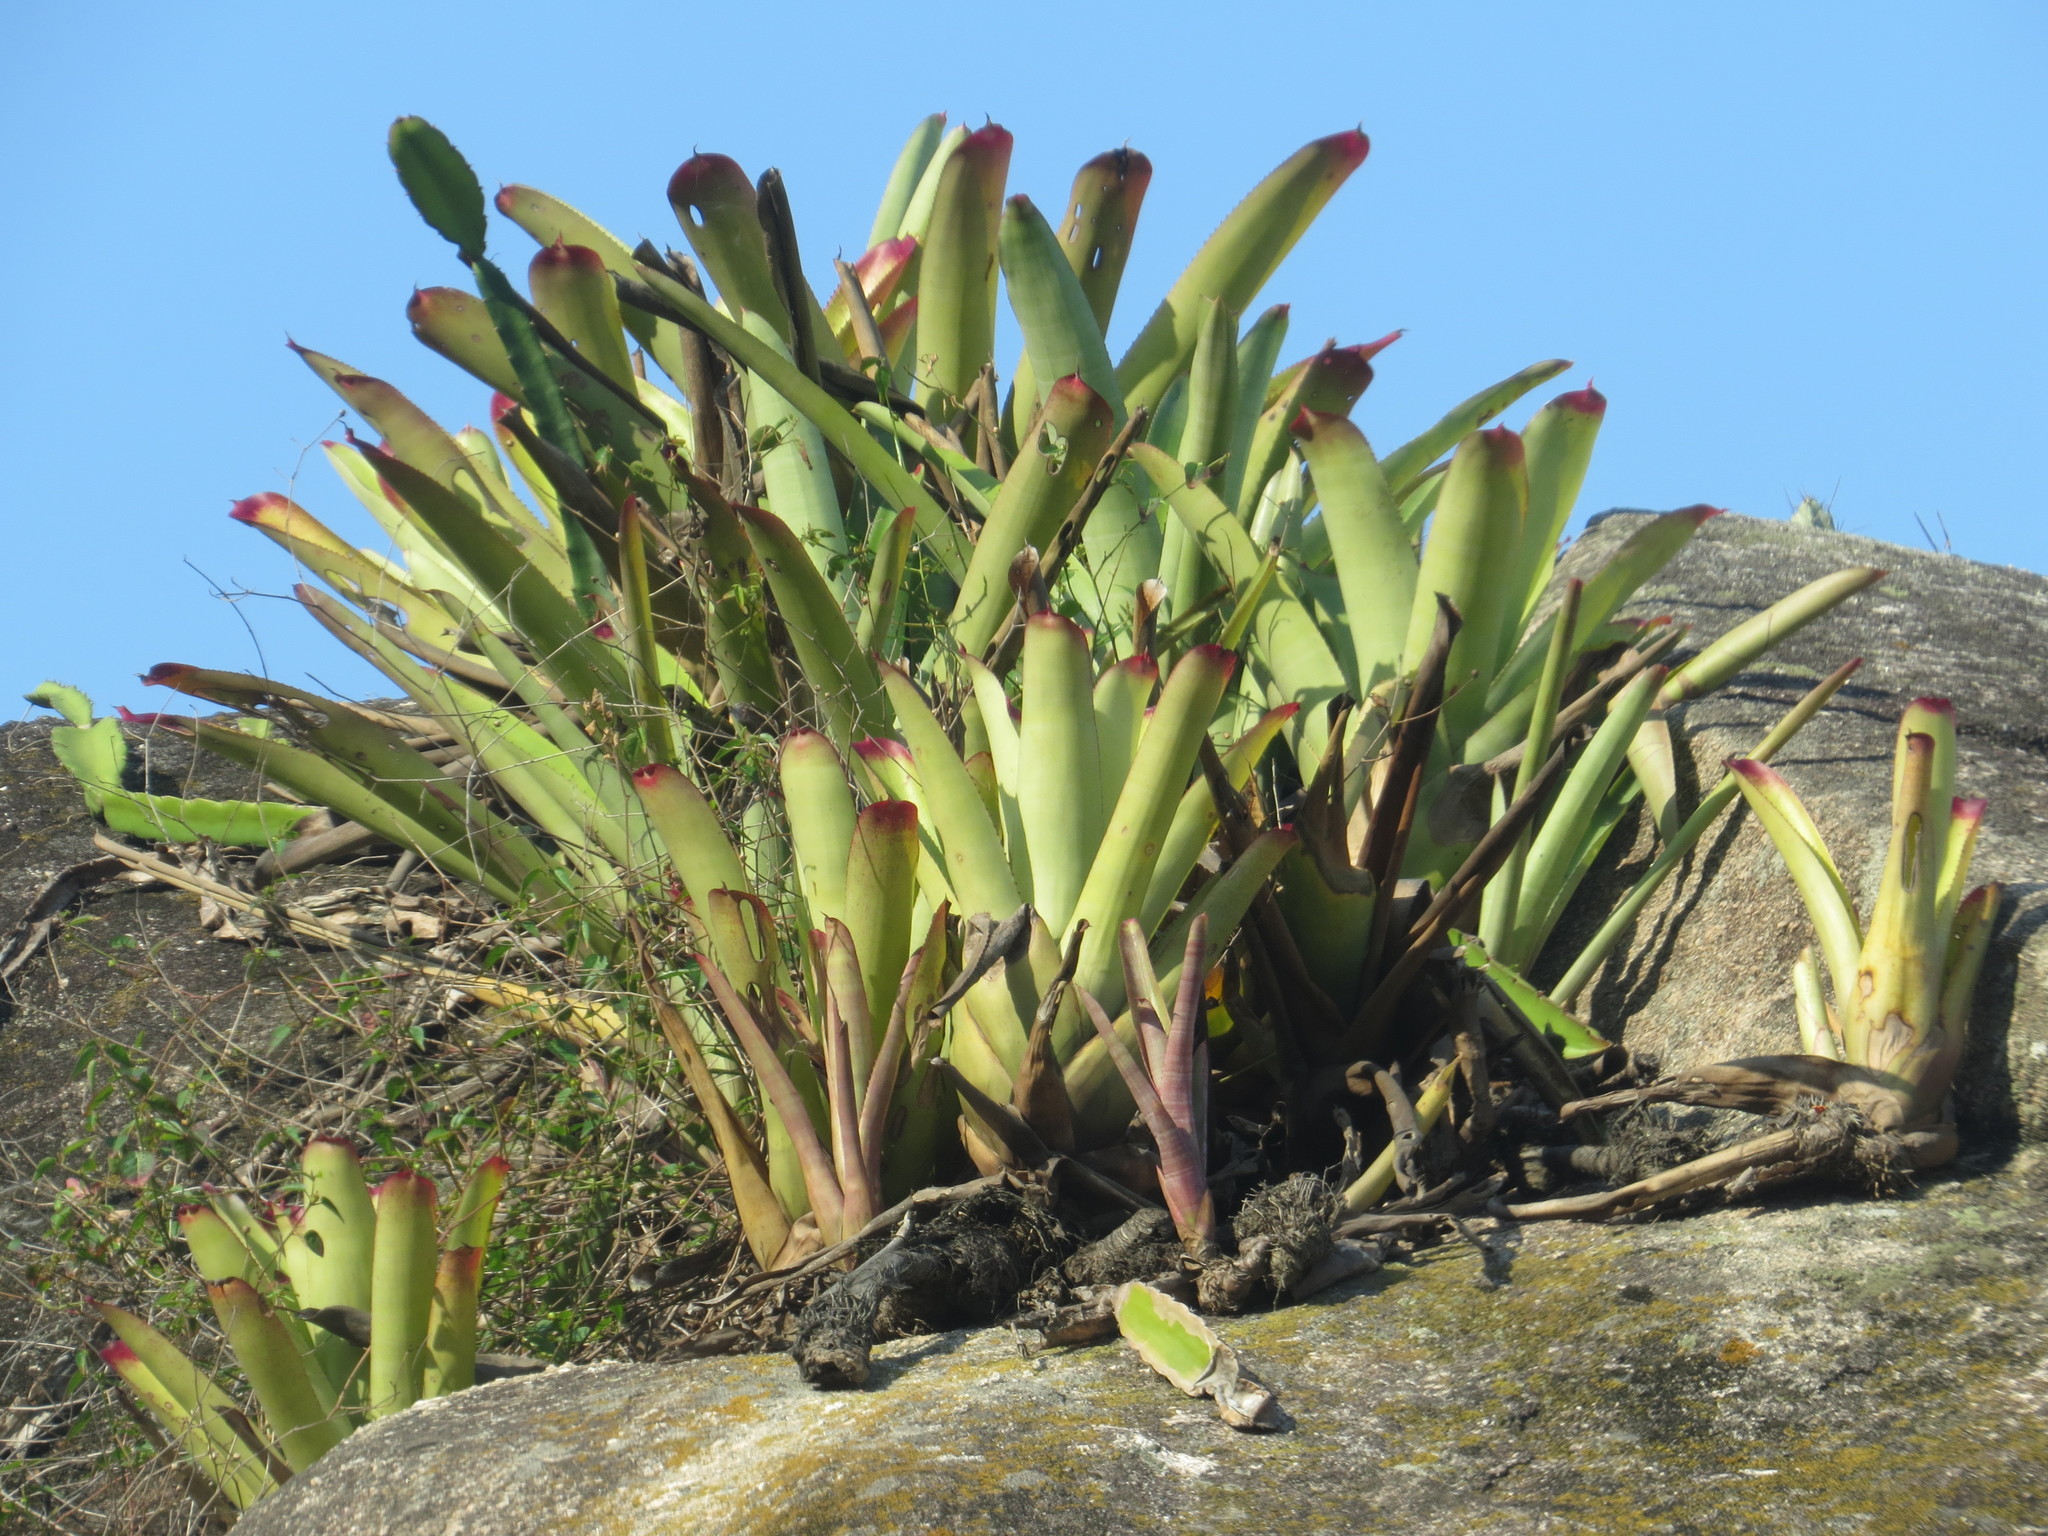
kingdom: Plantae
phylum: Tracheophyta
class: Liliopsida
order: Poales
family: Bromeliaceae
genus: Neoregelia
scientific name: Neoregelia cruenta
